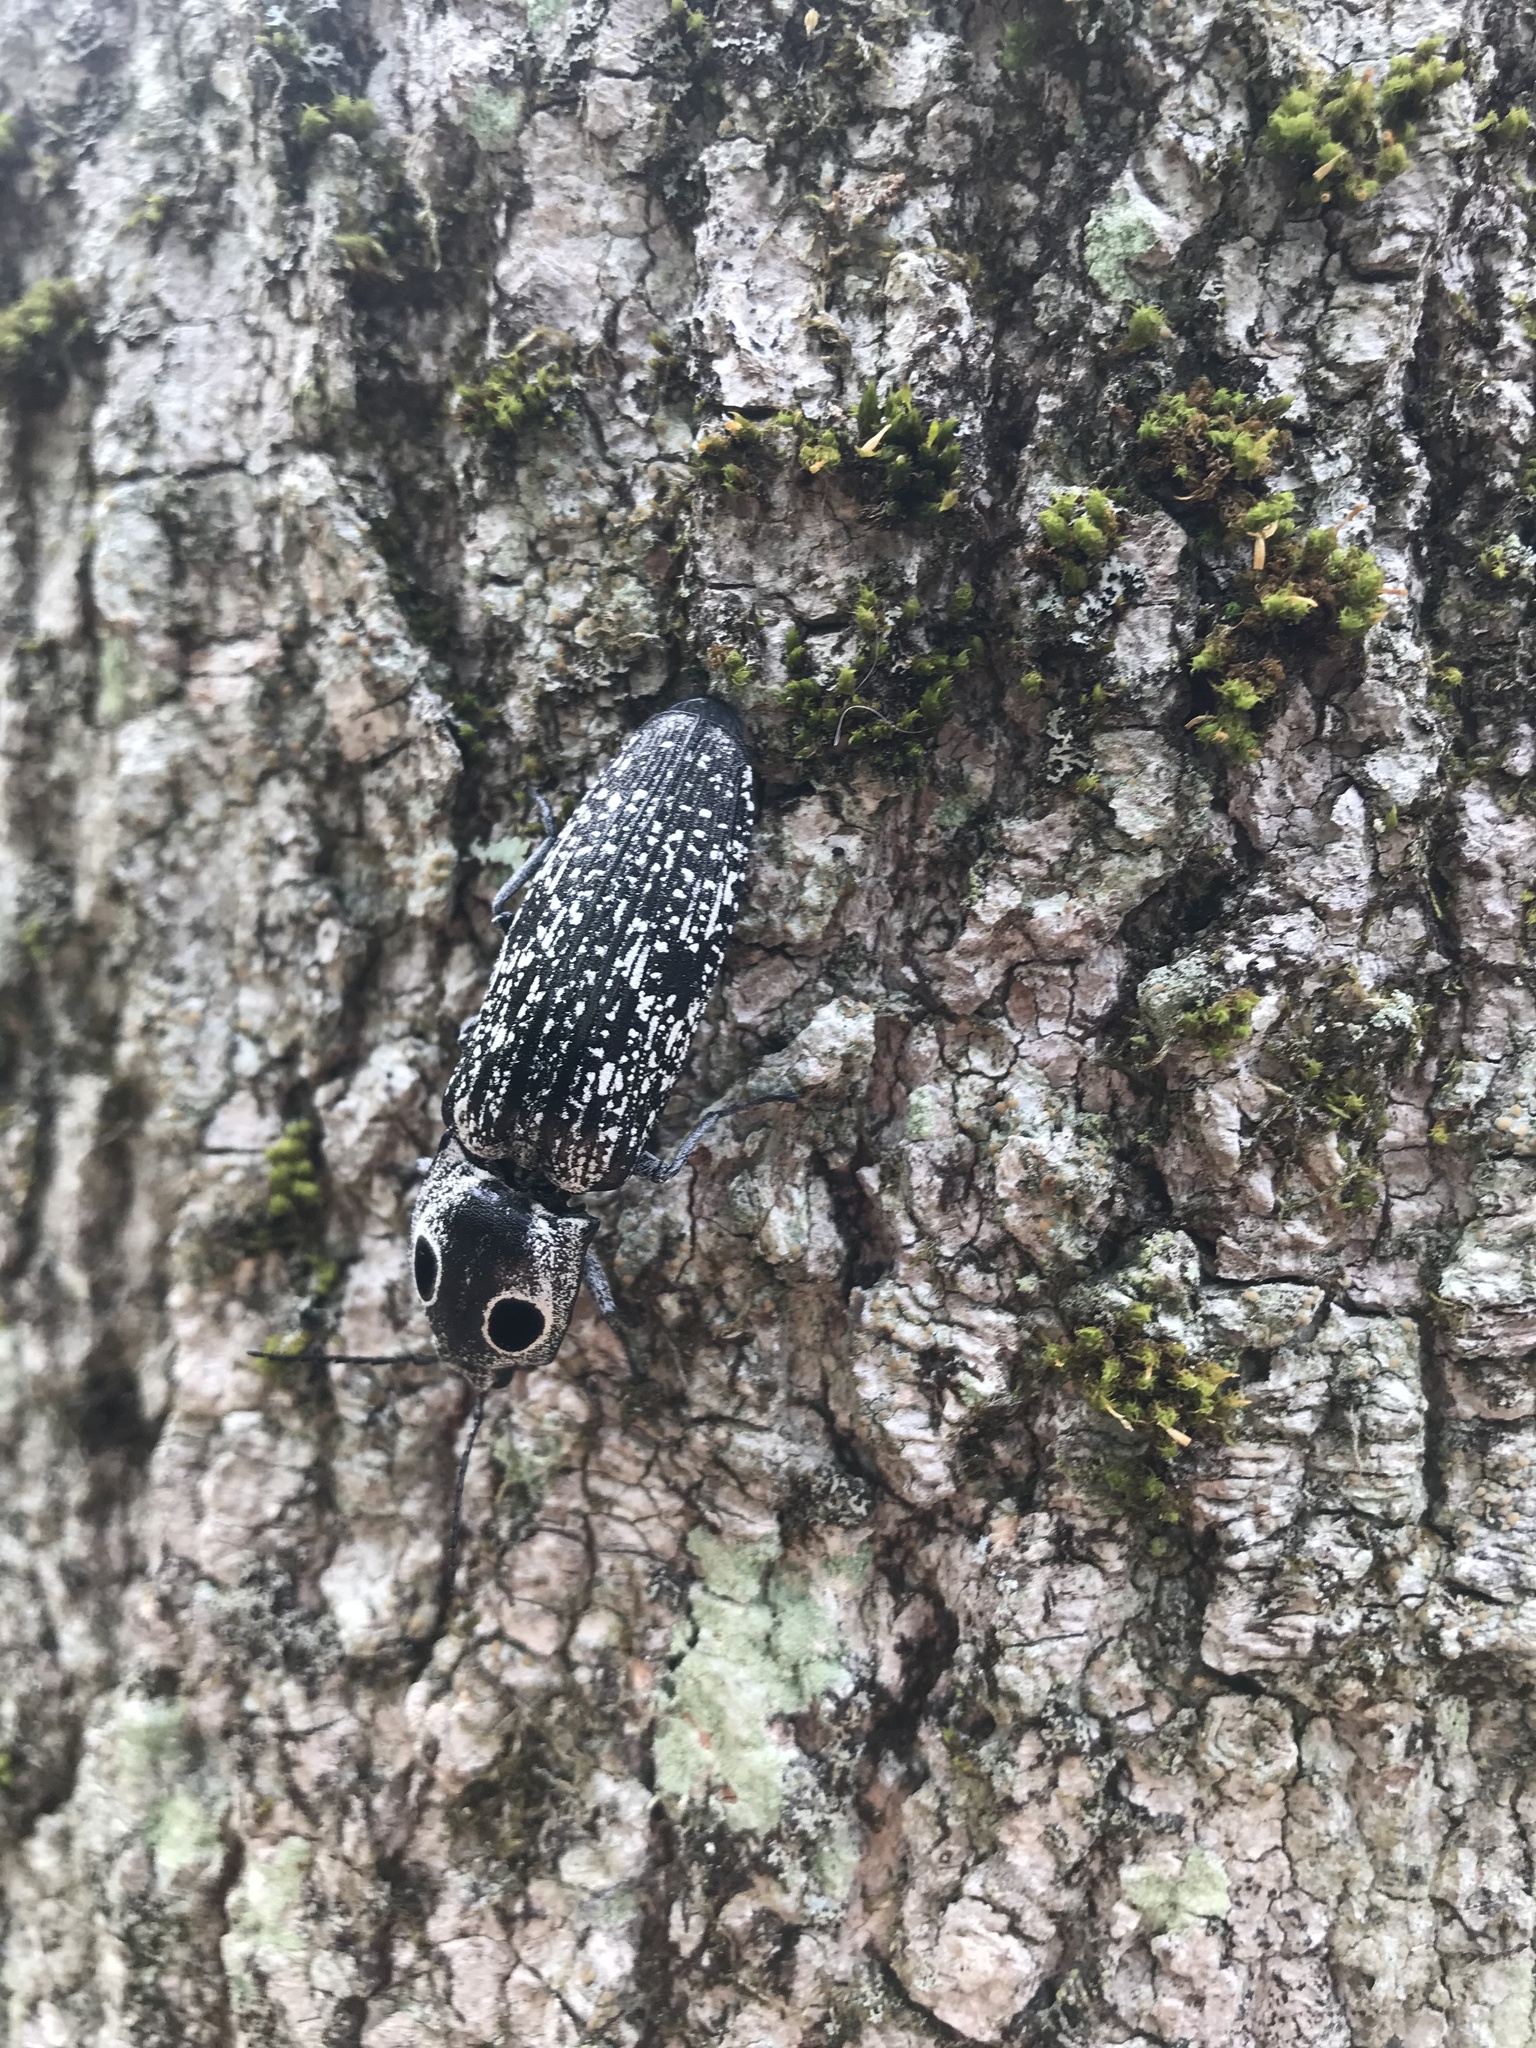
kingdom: Animalia
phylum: Arthropoda
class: Insecta
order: Coleoptera
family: Elateridae
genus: Alaus
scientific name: Alaus oculatus
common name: Eastern eyed click beetle
